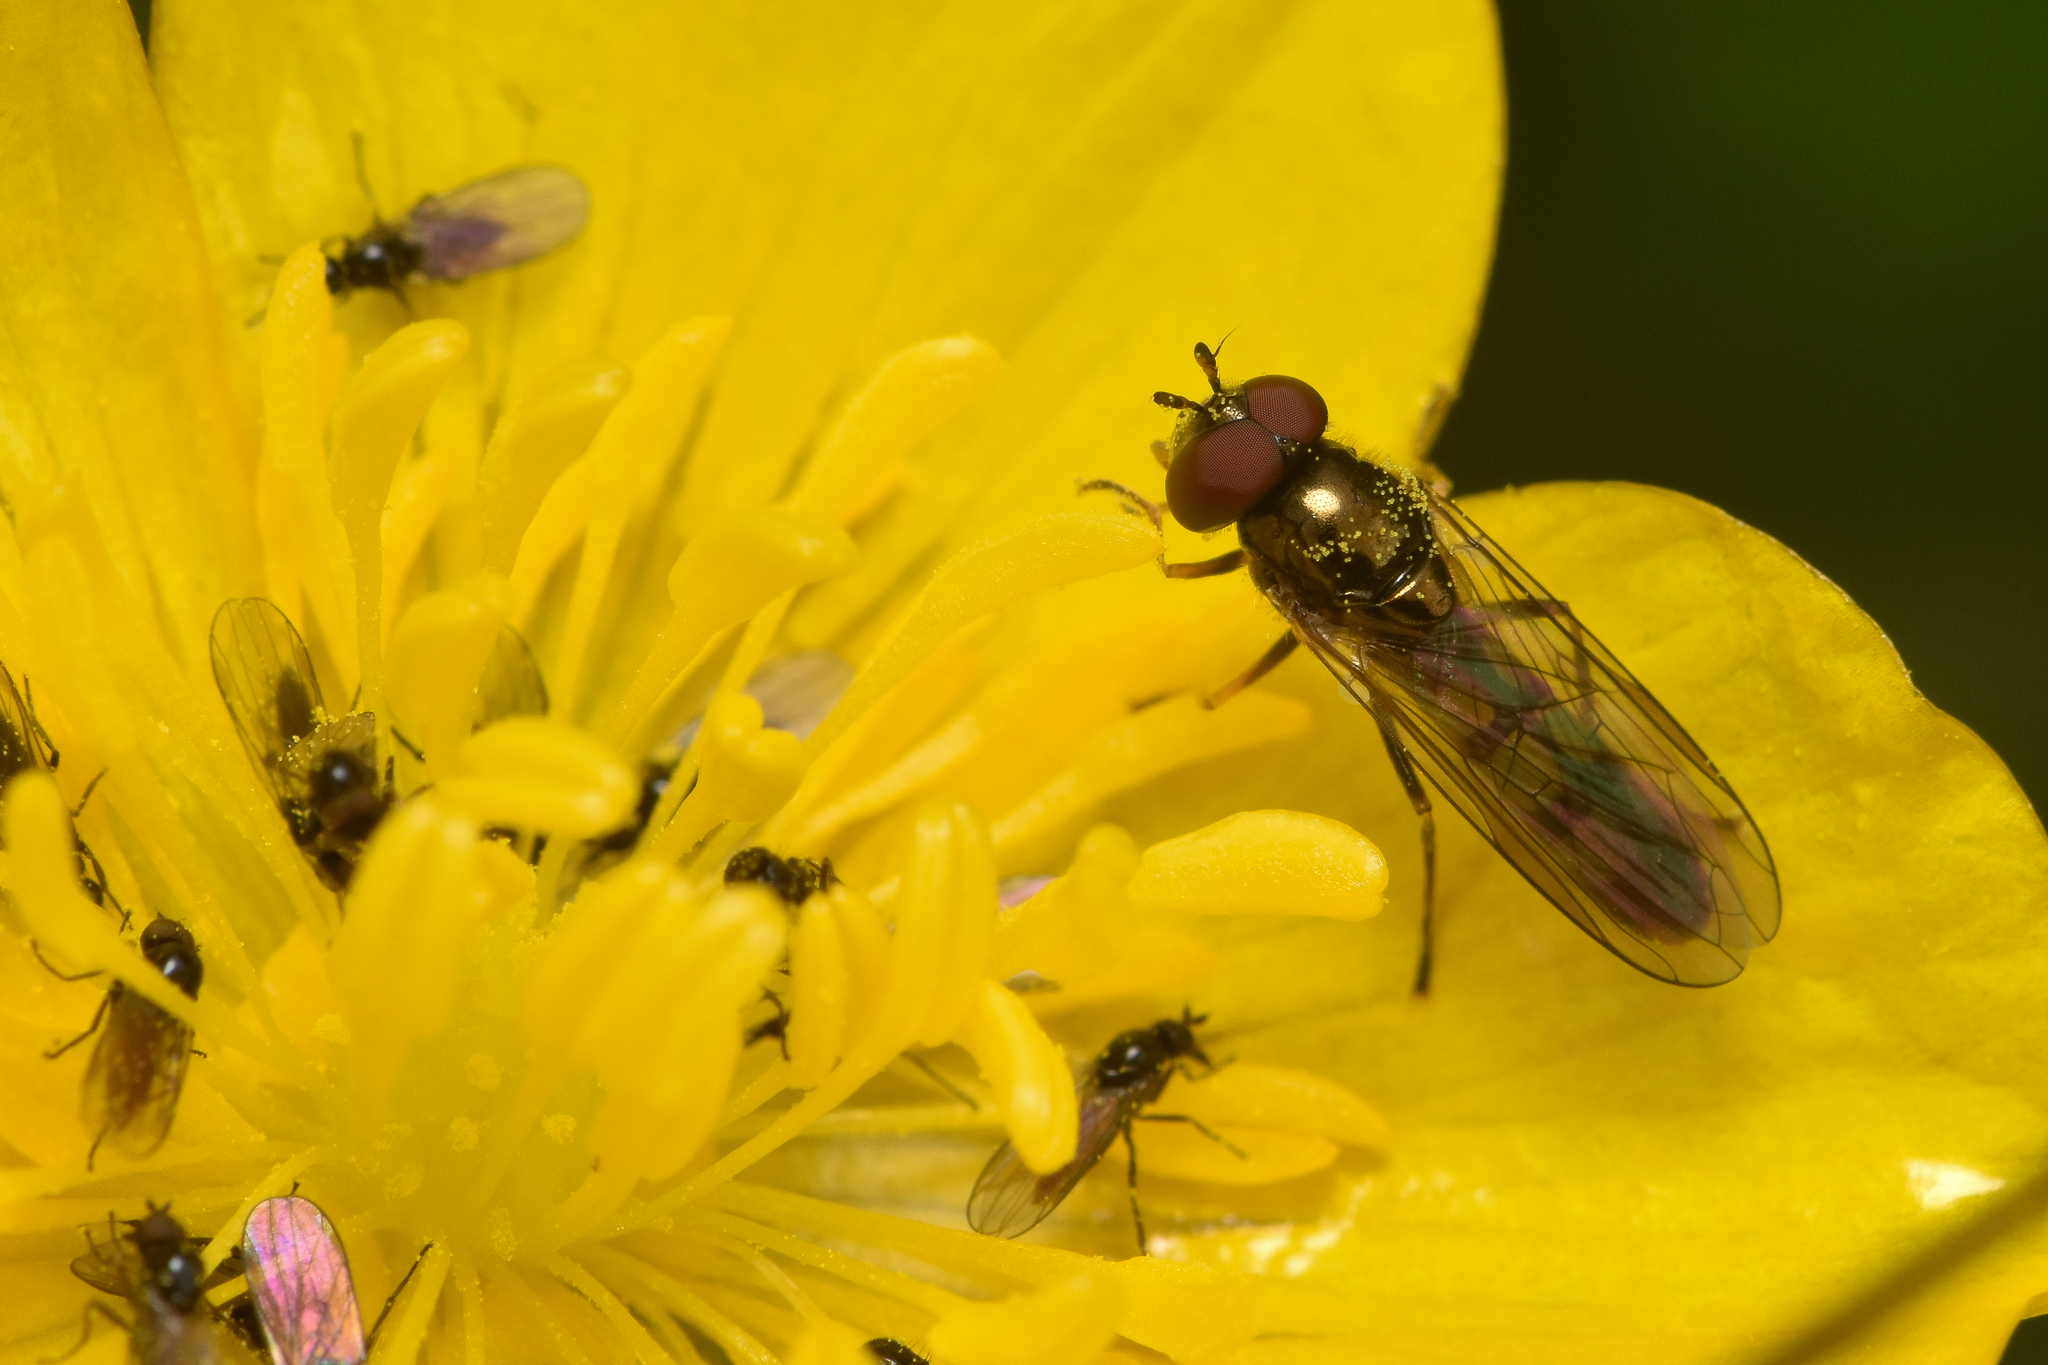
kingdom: Animalia
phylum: Arthropoda
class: Insecta
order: Diptera
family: Syrphidae
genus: Melanostoma
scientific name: Melanostoma mellina
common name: Hover fly
